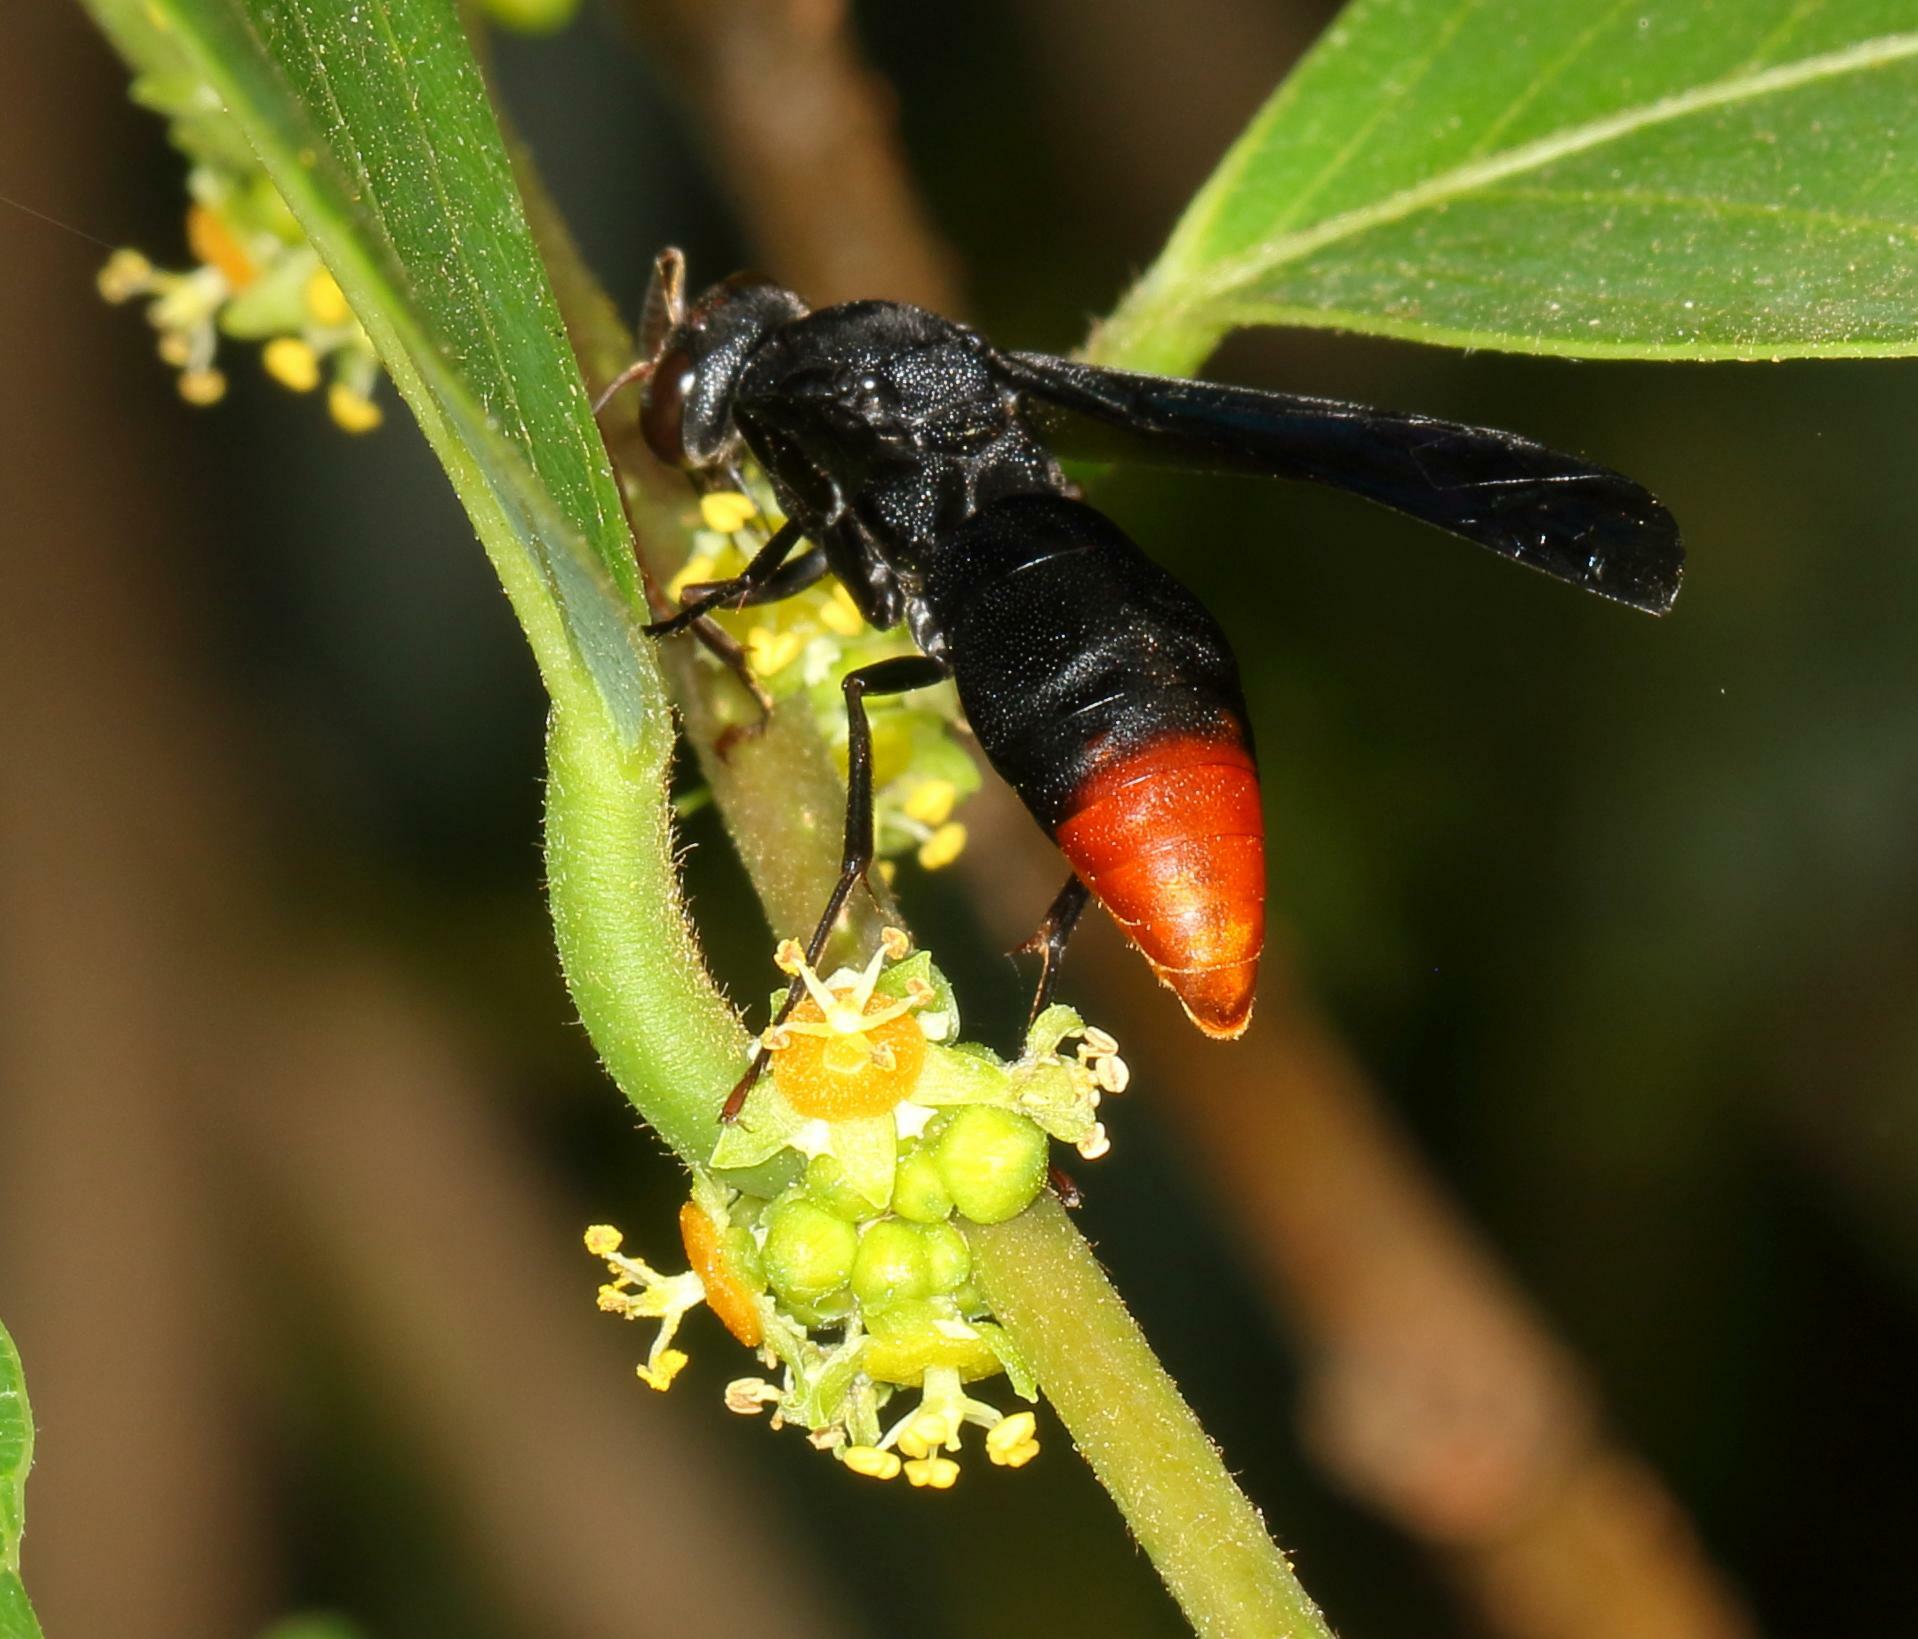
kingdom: Animalia
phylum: Arthropoda
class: Insecta
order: Hymenoptera
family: Eumenidae
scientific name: Eumenidae
